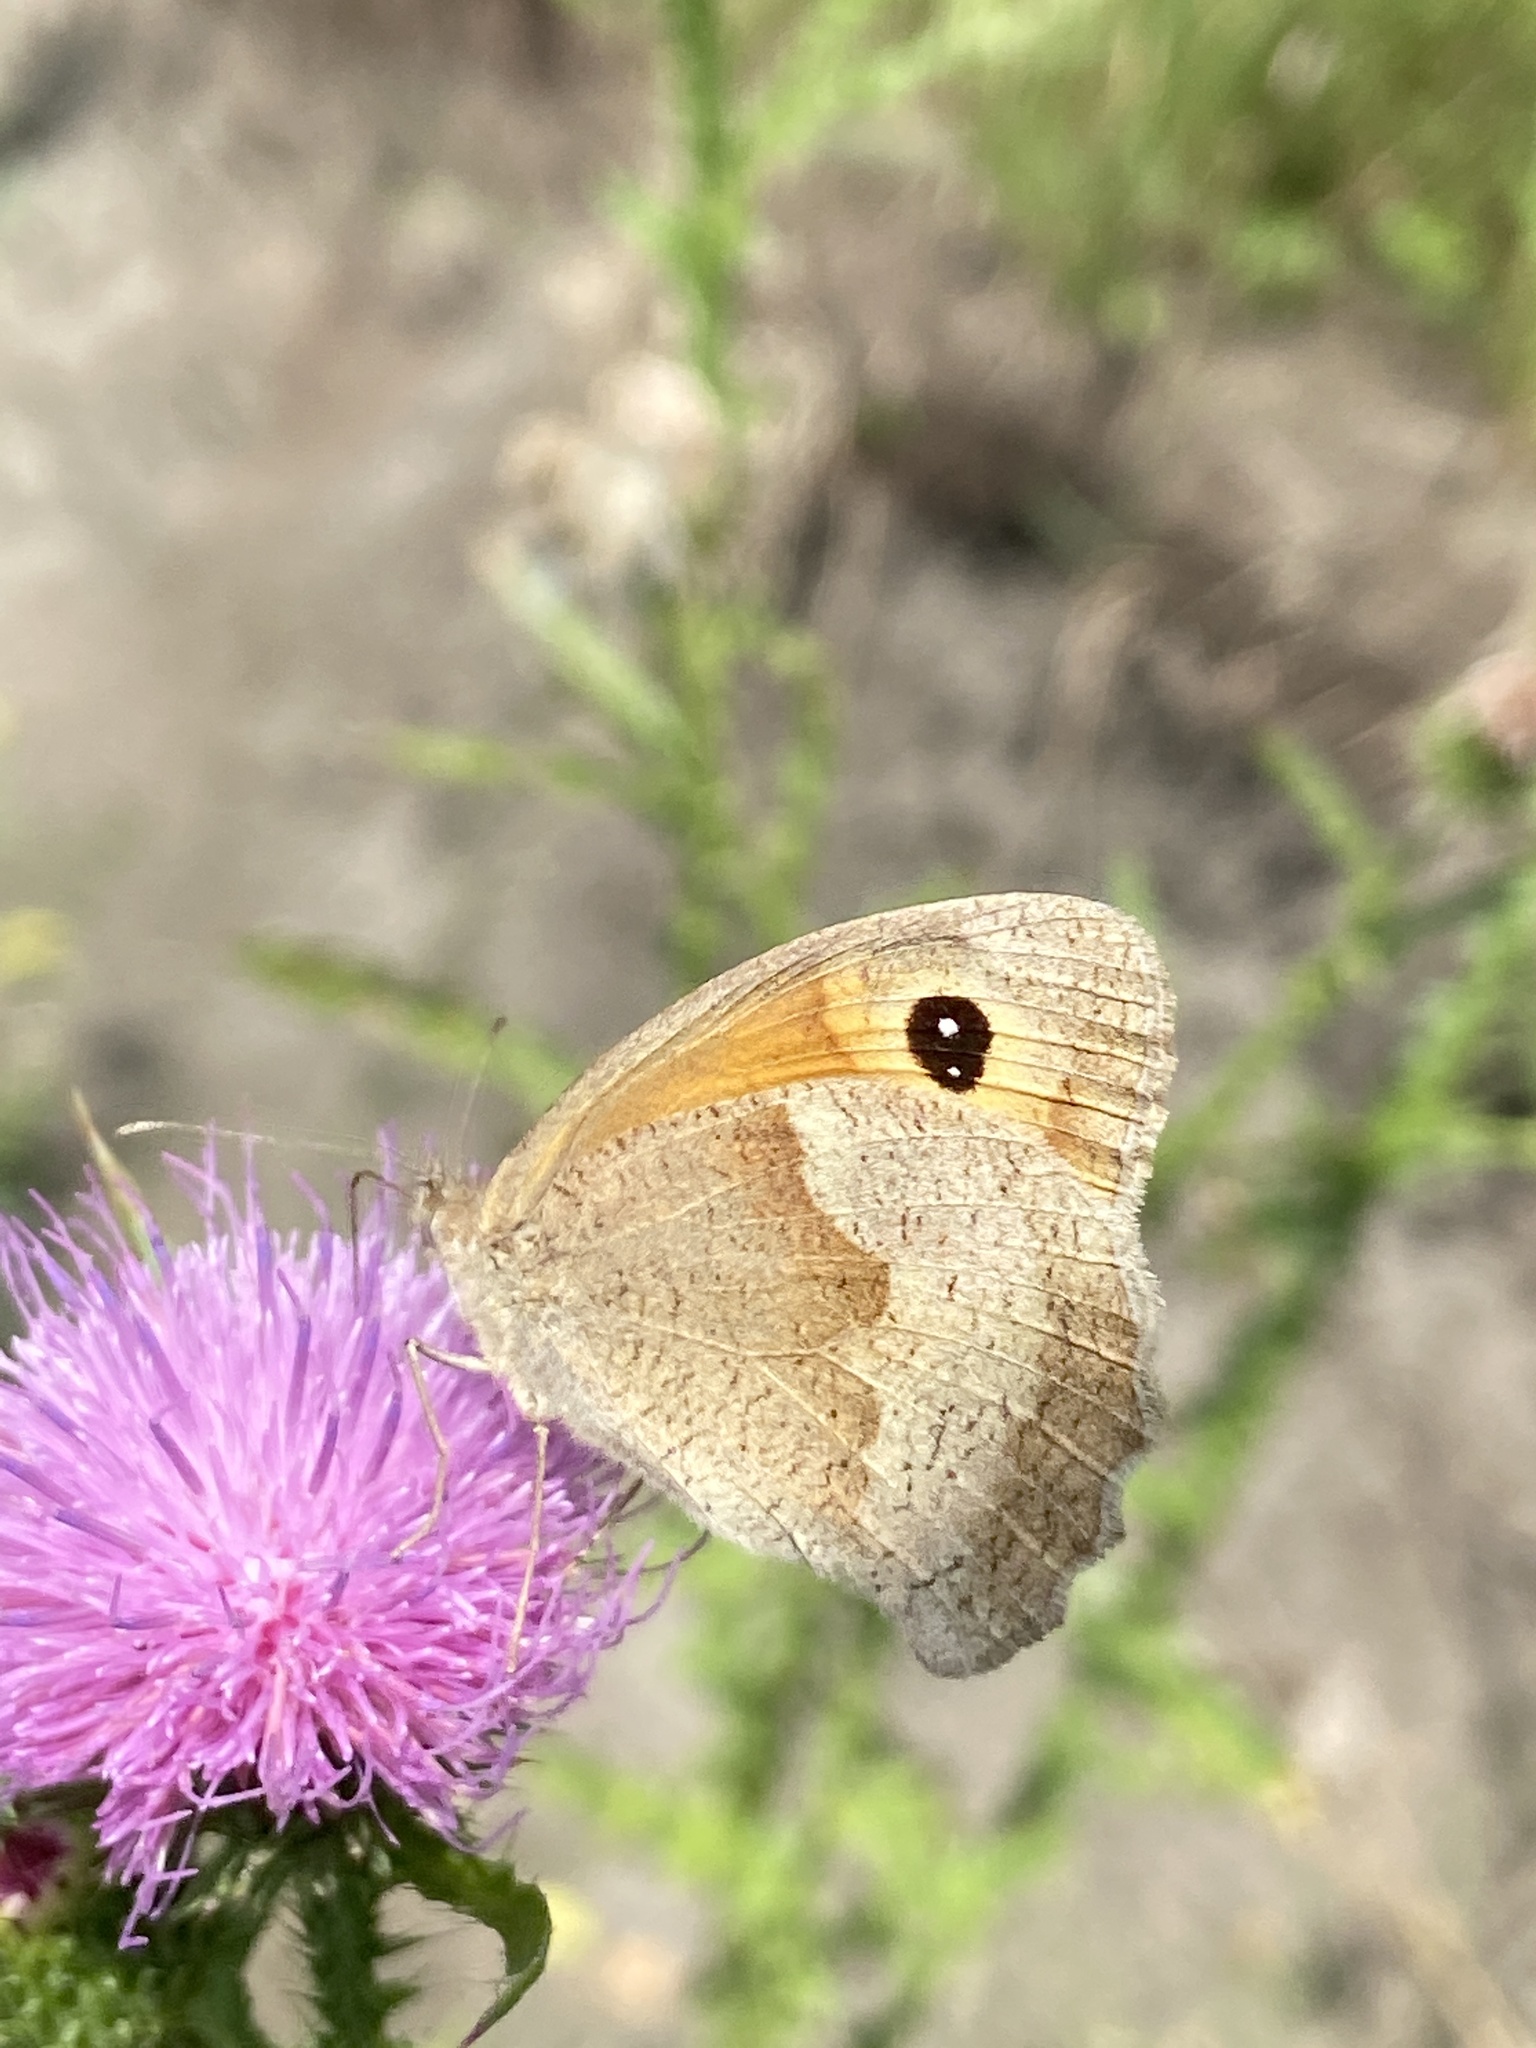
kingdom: Animalia
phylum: Arthropoda
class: Insecta
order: Lepidoptera
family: Nymphalidae
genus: Maniola
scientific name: Maniola jurtina
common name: Meadow brown
